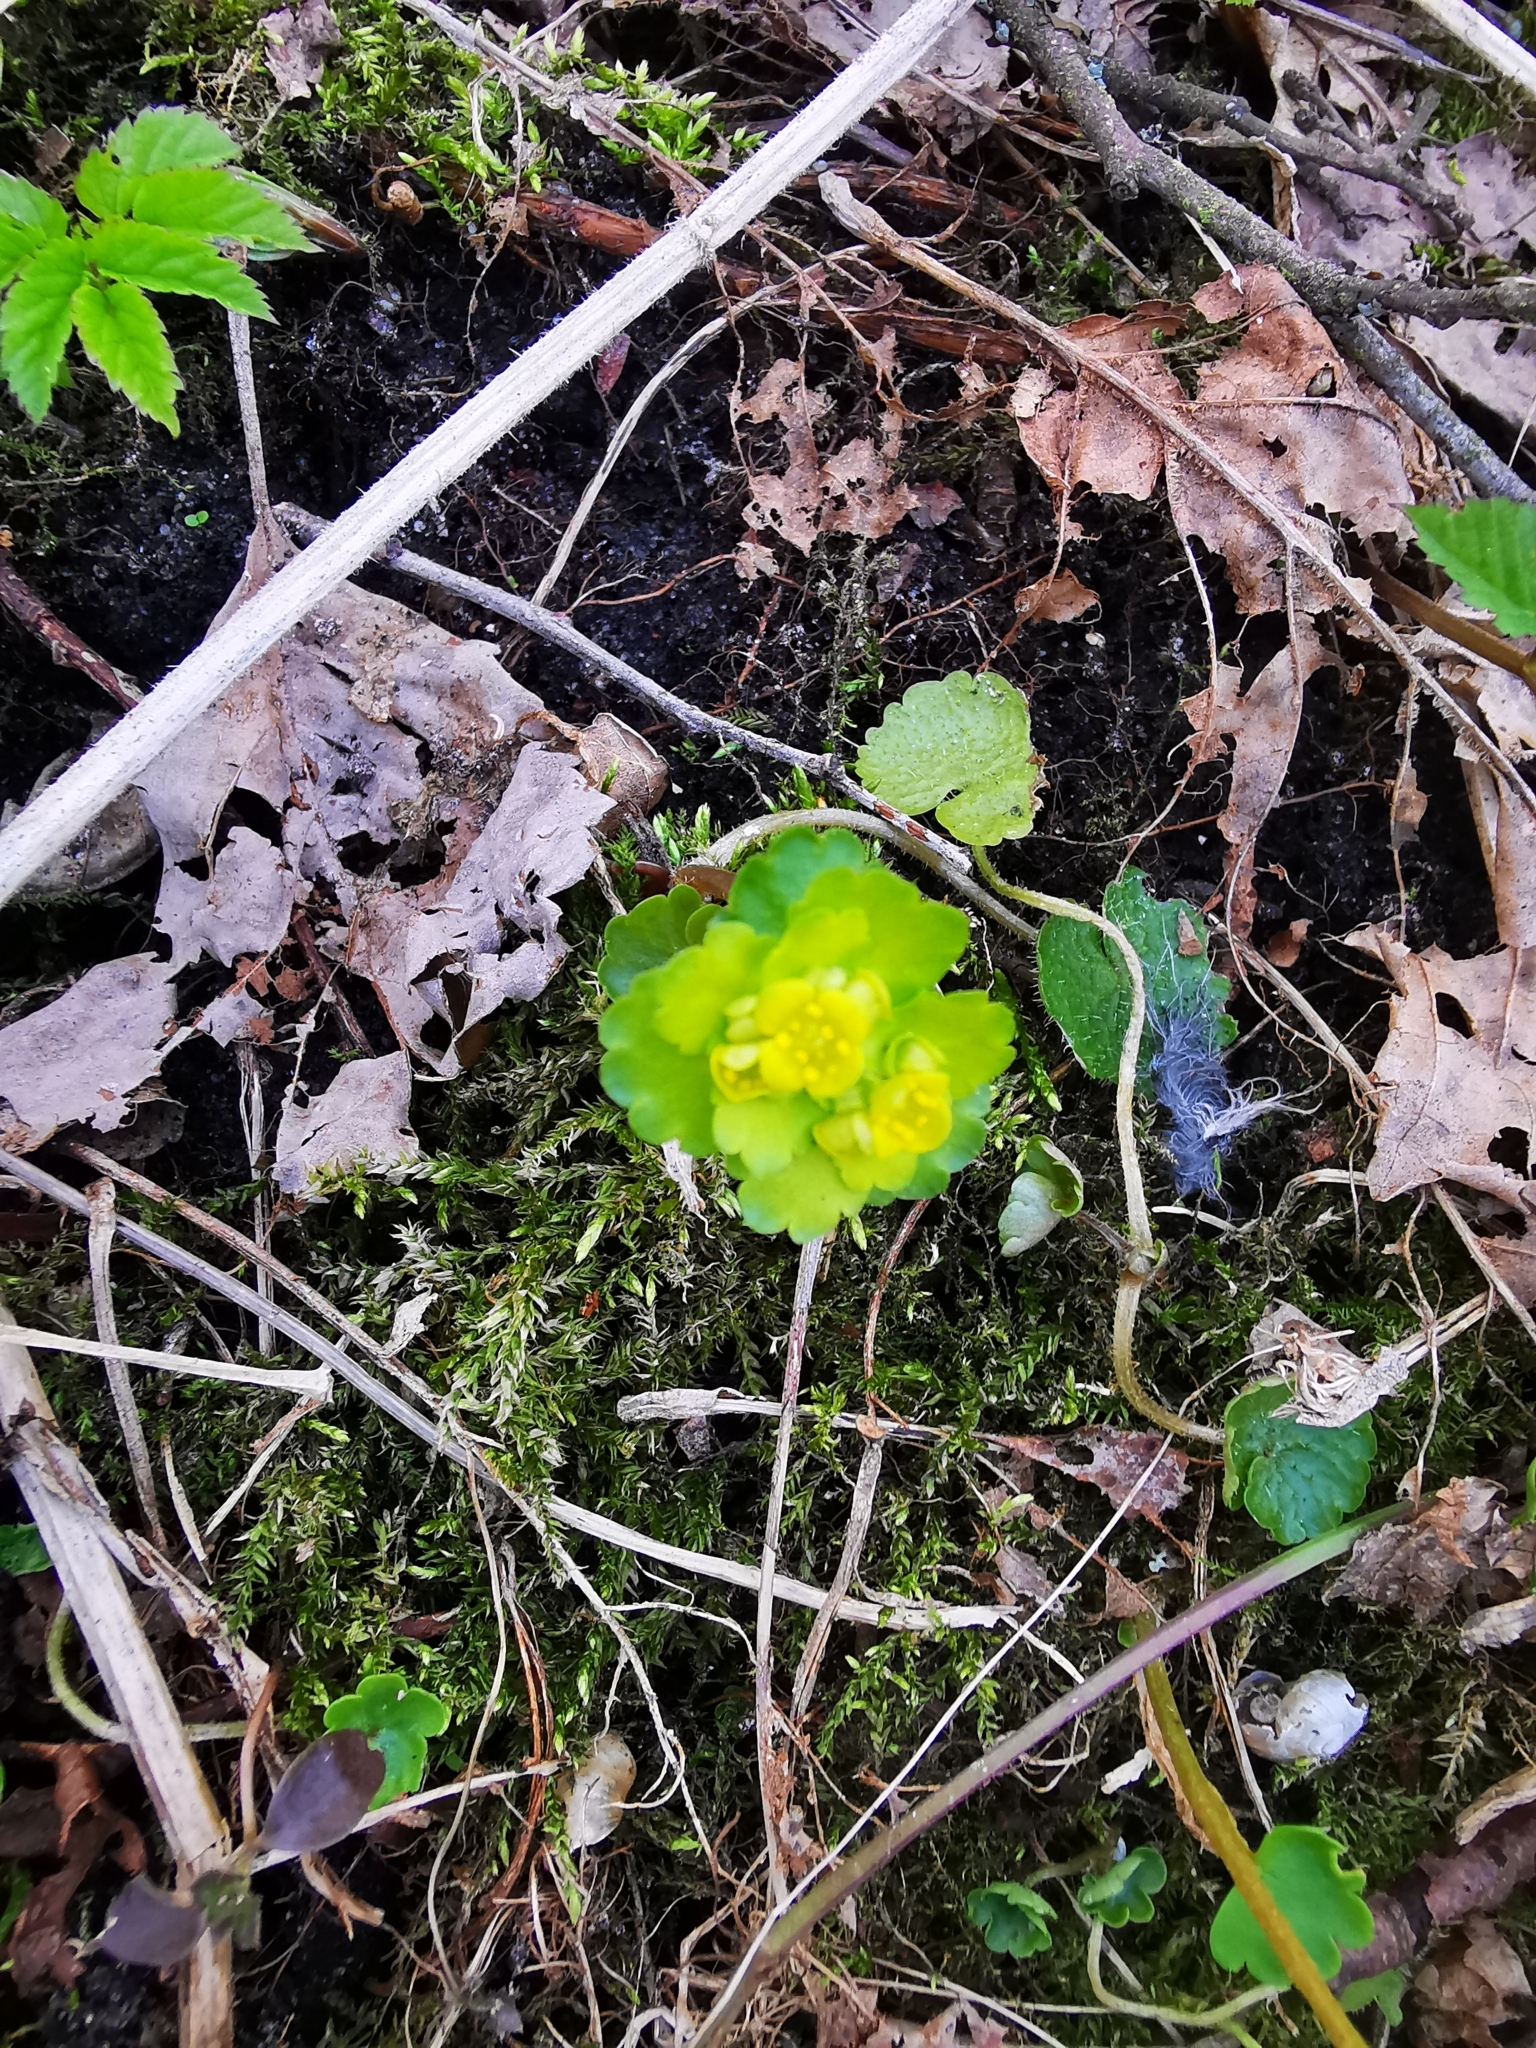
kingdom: Plantae
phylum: Tracheophyta
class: Magnoliopsida
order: Saxifragales
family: Saxifragaceae
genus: Chrysosplenium
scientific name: Chrysosplenium alternifolium
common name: Alternate-leaved golden-saxifrage
